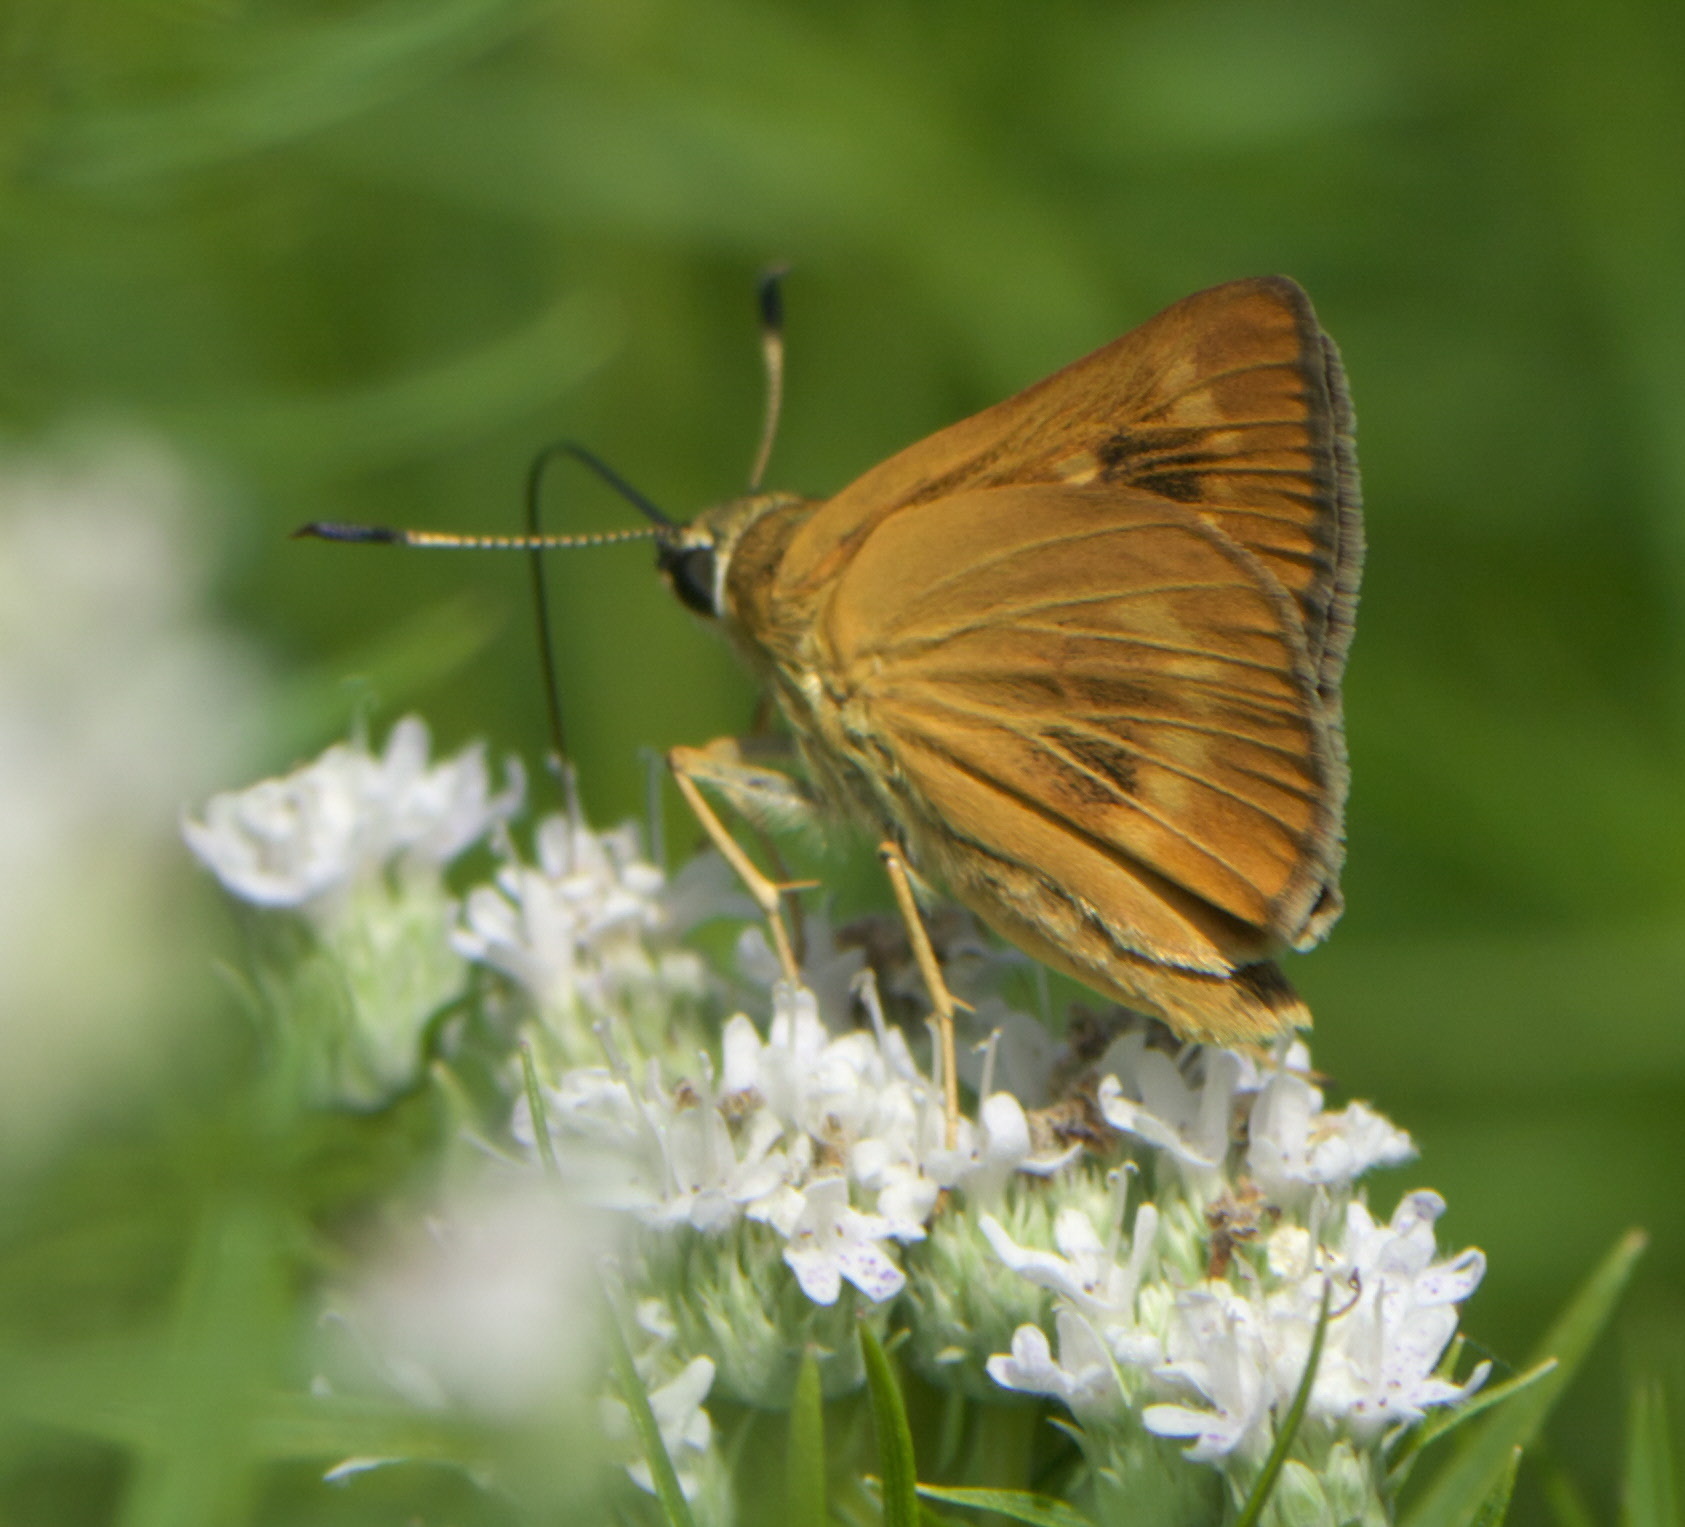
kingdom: Animalia
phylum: Arthropoda
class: Insecta
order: Lepidoptera
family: Hesperiidae
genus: Problema
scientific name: Problema byssus
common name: Byssus skipper
